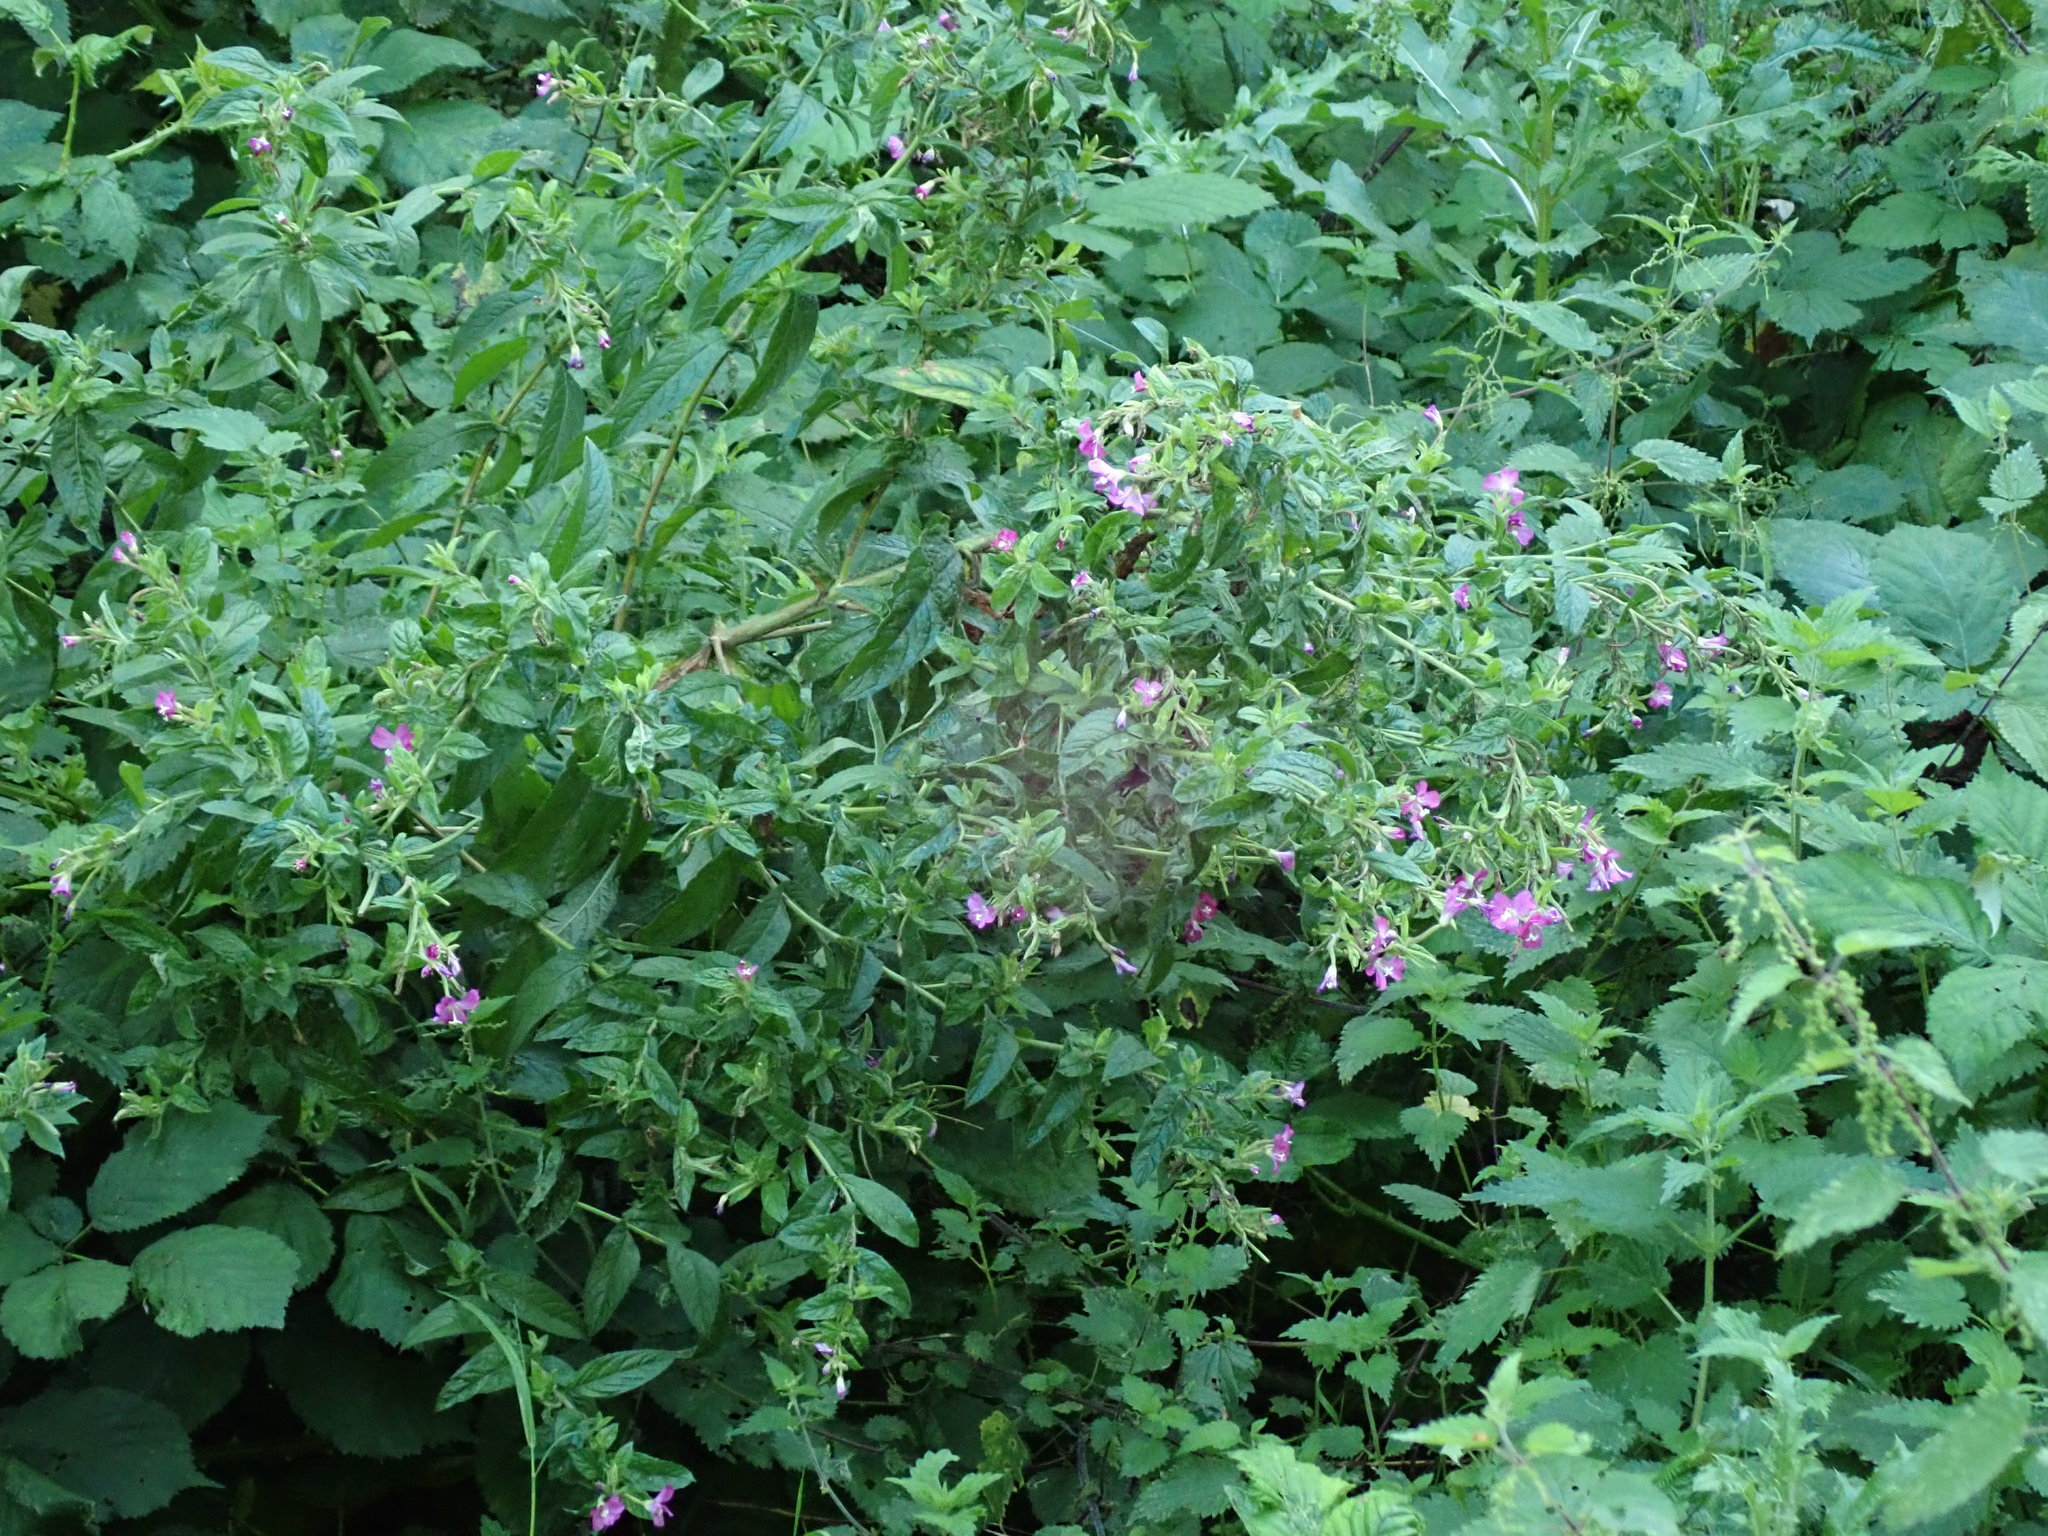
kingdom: Plantae
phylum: Tracheophyta
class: Magnoliopsida
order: Myrtales
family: Onagraceae
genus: Epilobium
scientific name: Epilobium hirsutum
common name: Great willowherb
